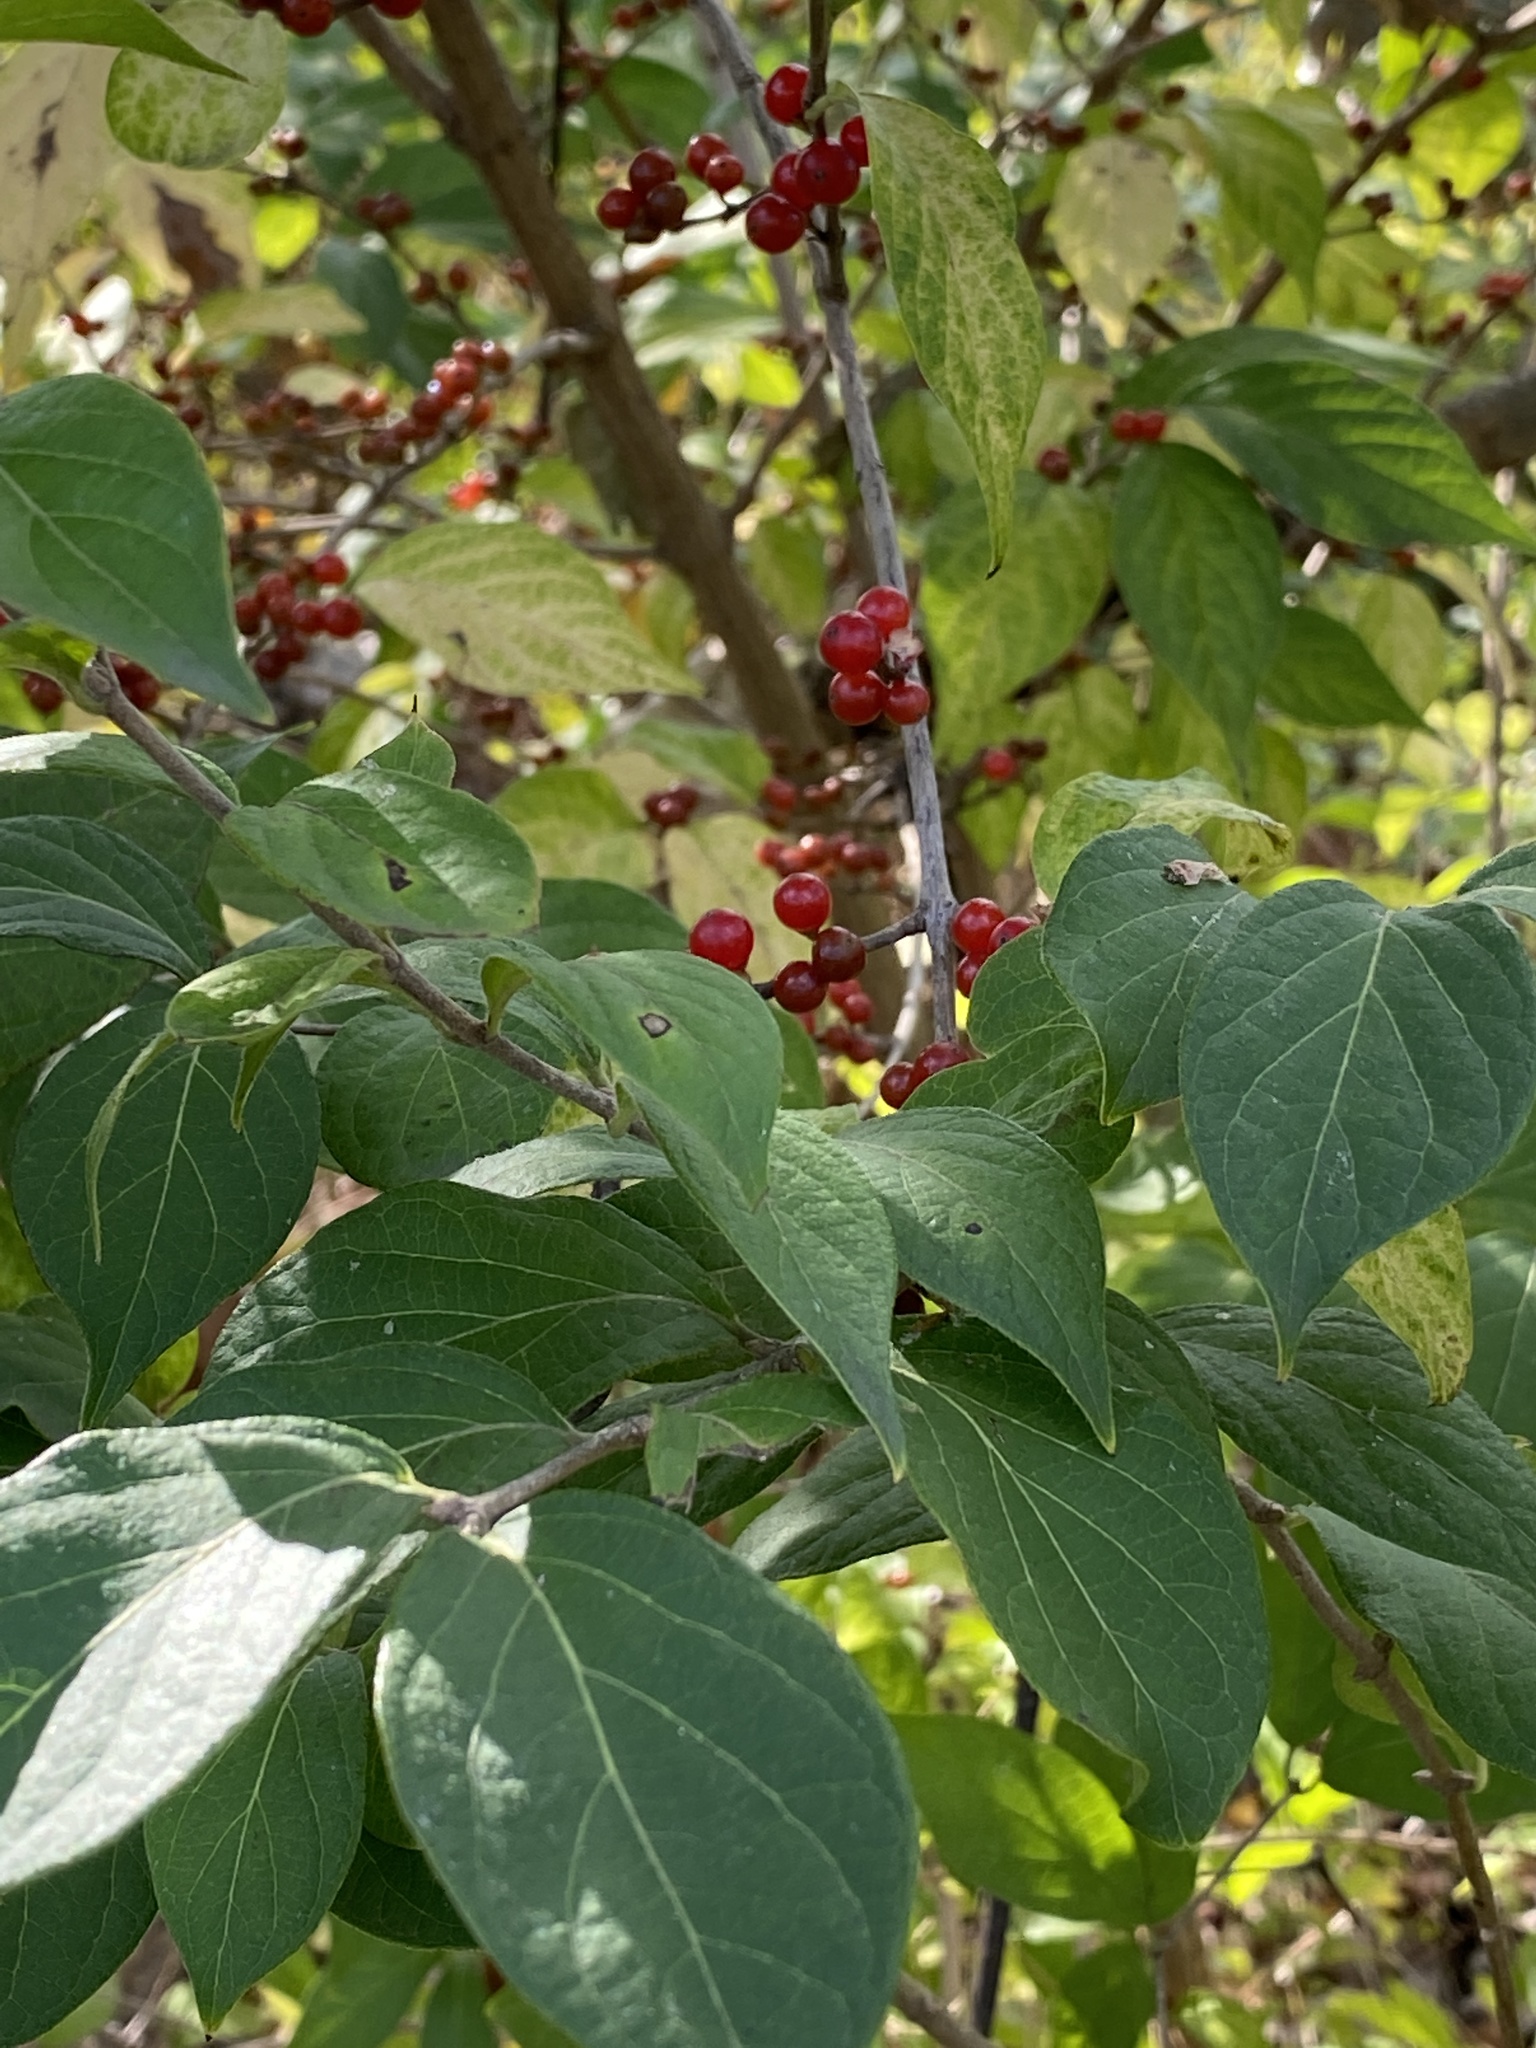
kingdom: Plantae
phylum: Tracheophyta
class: Magnoliopsida
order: Dipsacales
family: Caprifoliaceae
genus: Lonicera
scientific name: Lonicera maackii
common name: Amur honeysuckle
